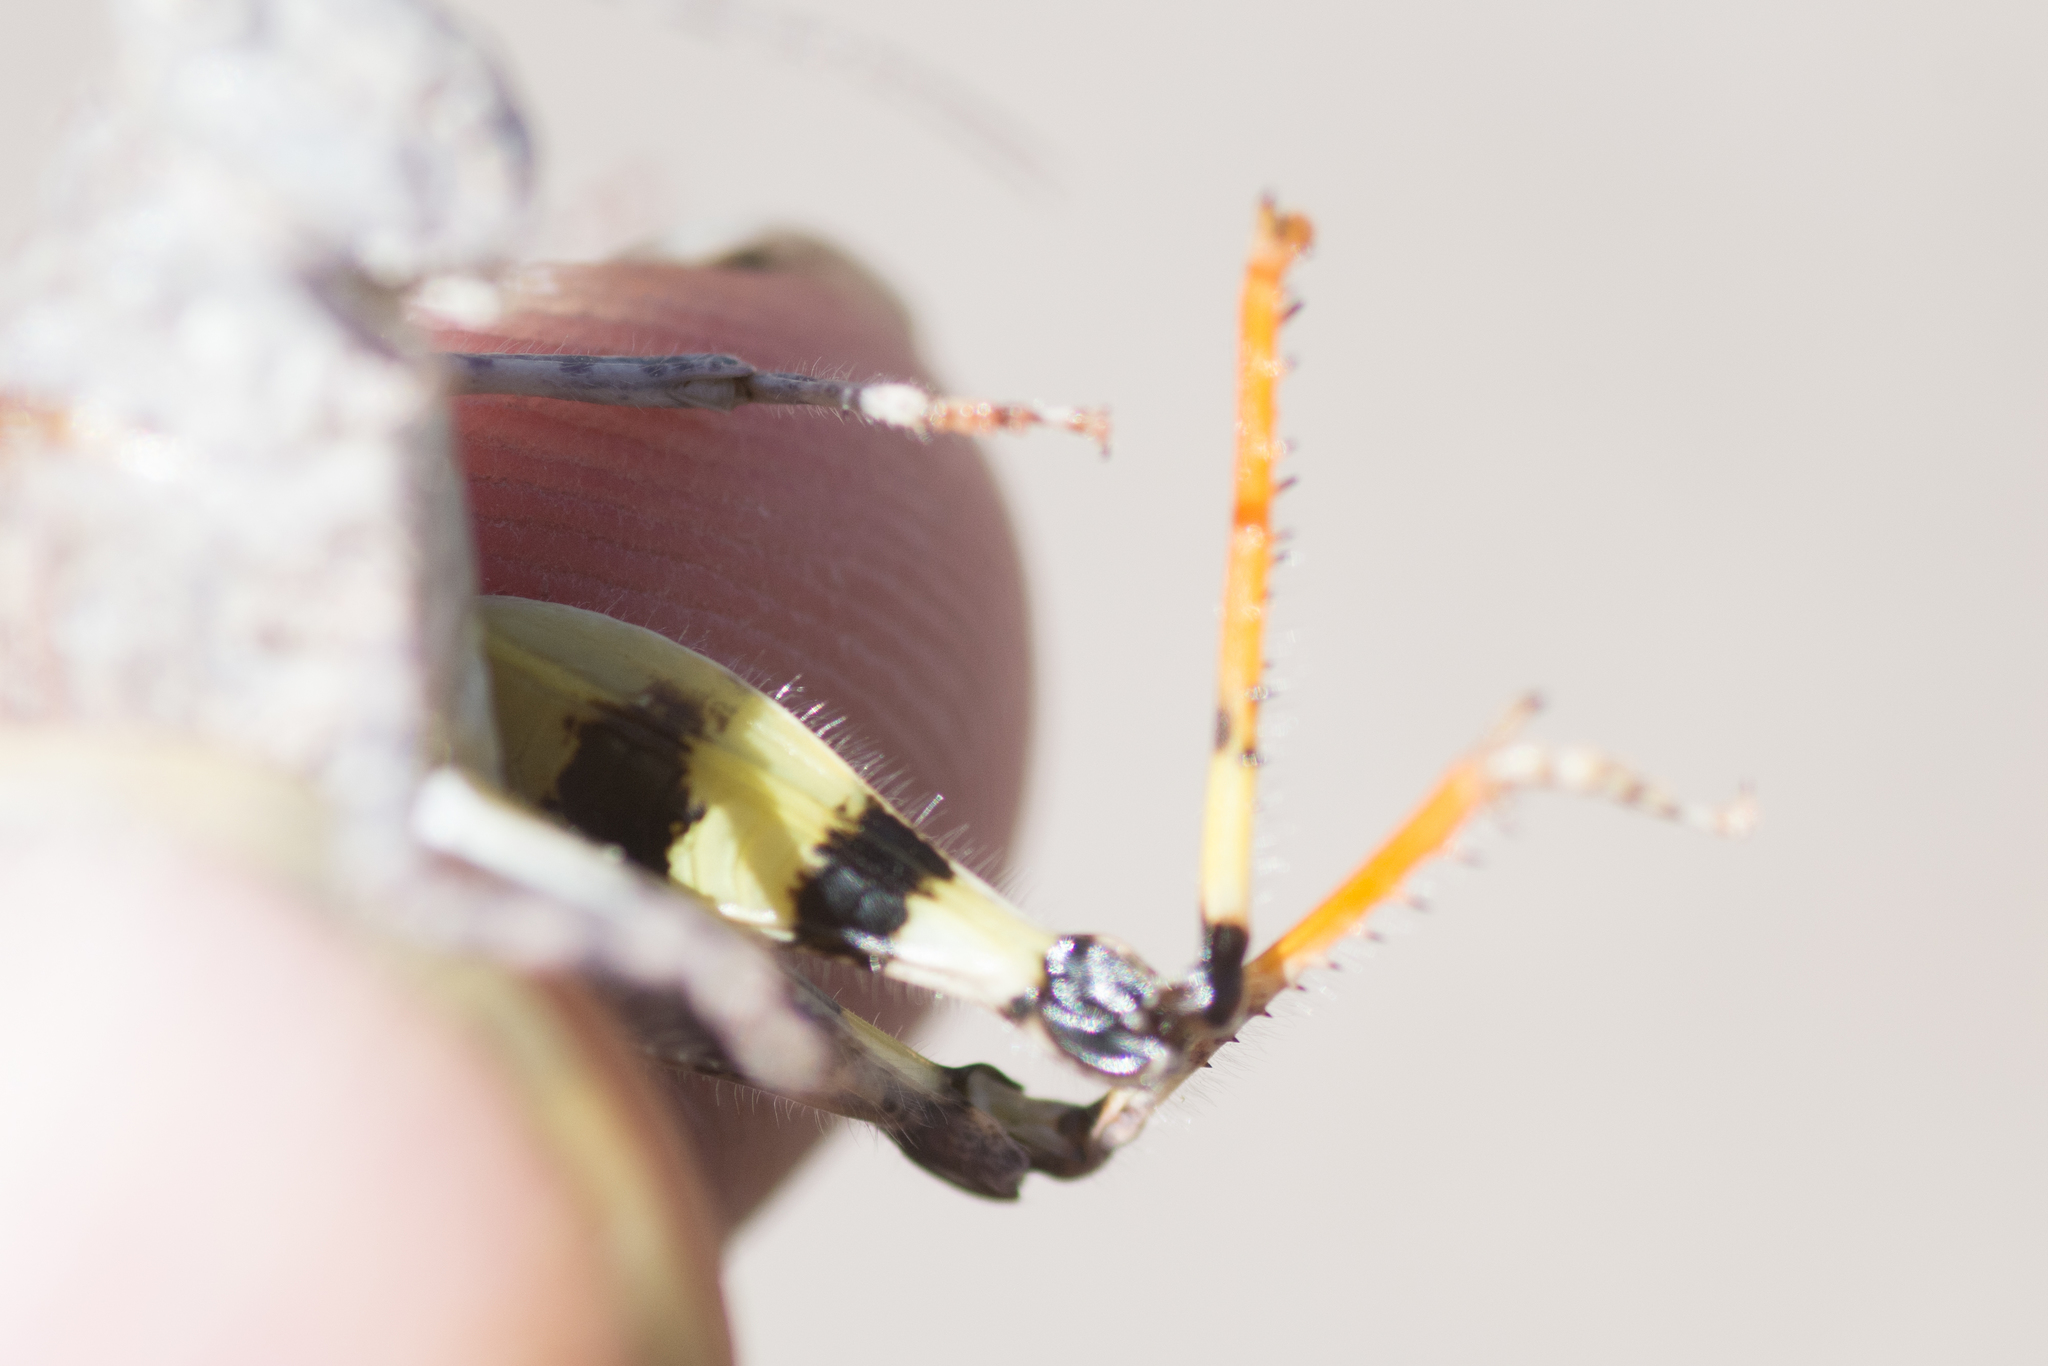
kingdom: Animalia
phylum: Arthropoda
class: Insecta
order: Orthoptera
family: Acrididae
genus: Heliastus
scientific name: Heliastus benjamini
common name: Arroyo grasshopper
